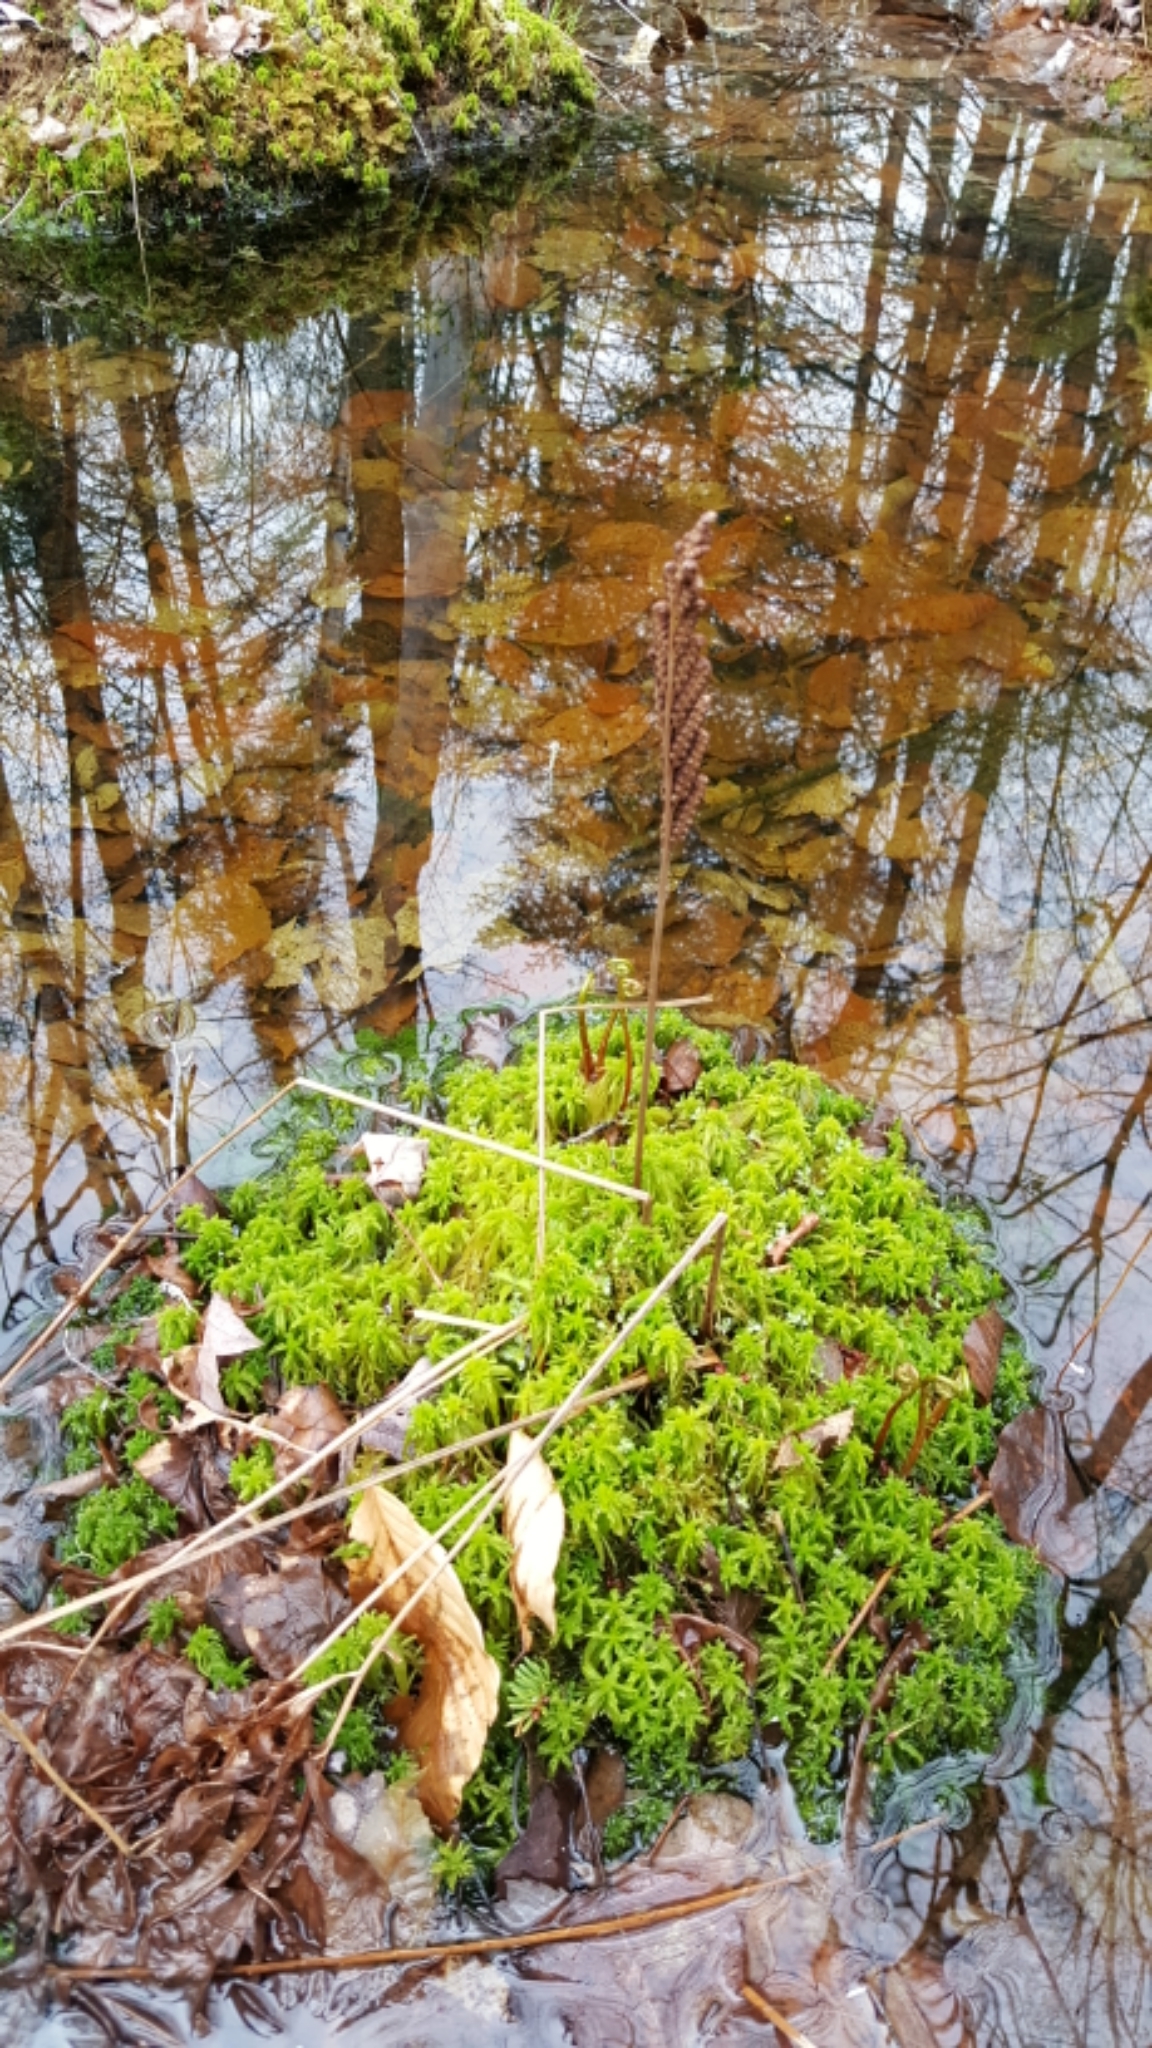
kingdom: Plantae
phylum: Tracheophyta
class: Polypodiopsida
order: Polypodiales
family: Onocleaceae
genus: Onoclea
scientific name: Onoclea sensibilis
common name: Sensitive fern
